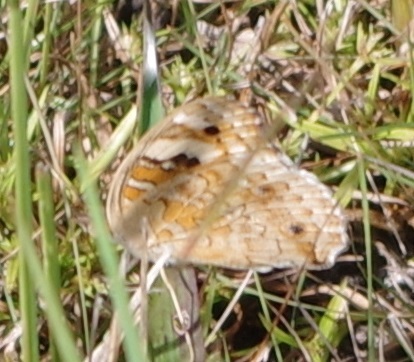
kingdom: Animalia
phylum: Arthropoda
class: Insecta
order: Lepidoptera
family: Nymphalidae
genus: Junonia
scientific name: Junonia orithya
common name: Blue pansy
